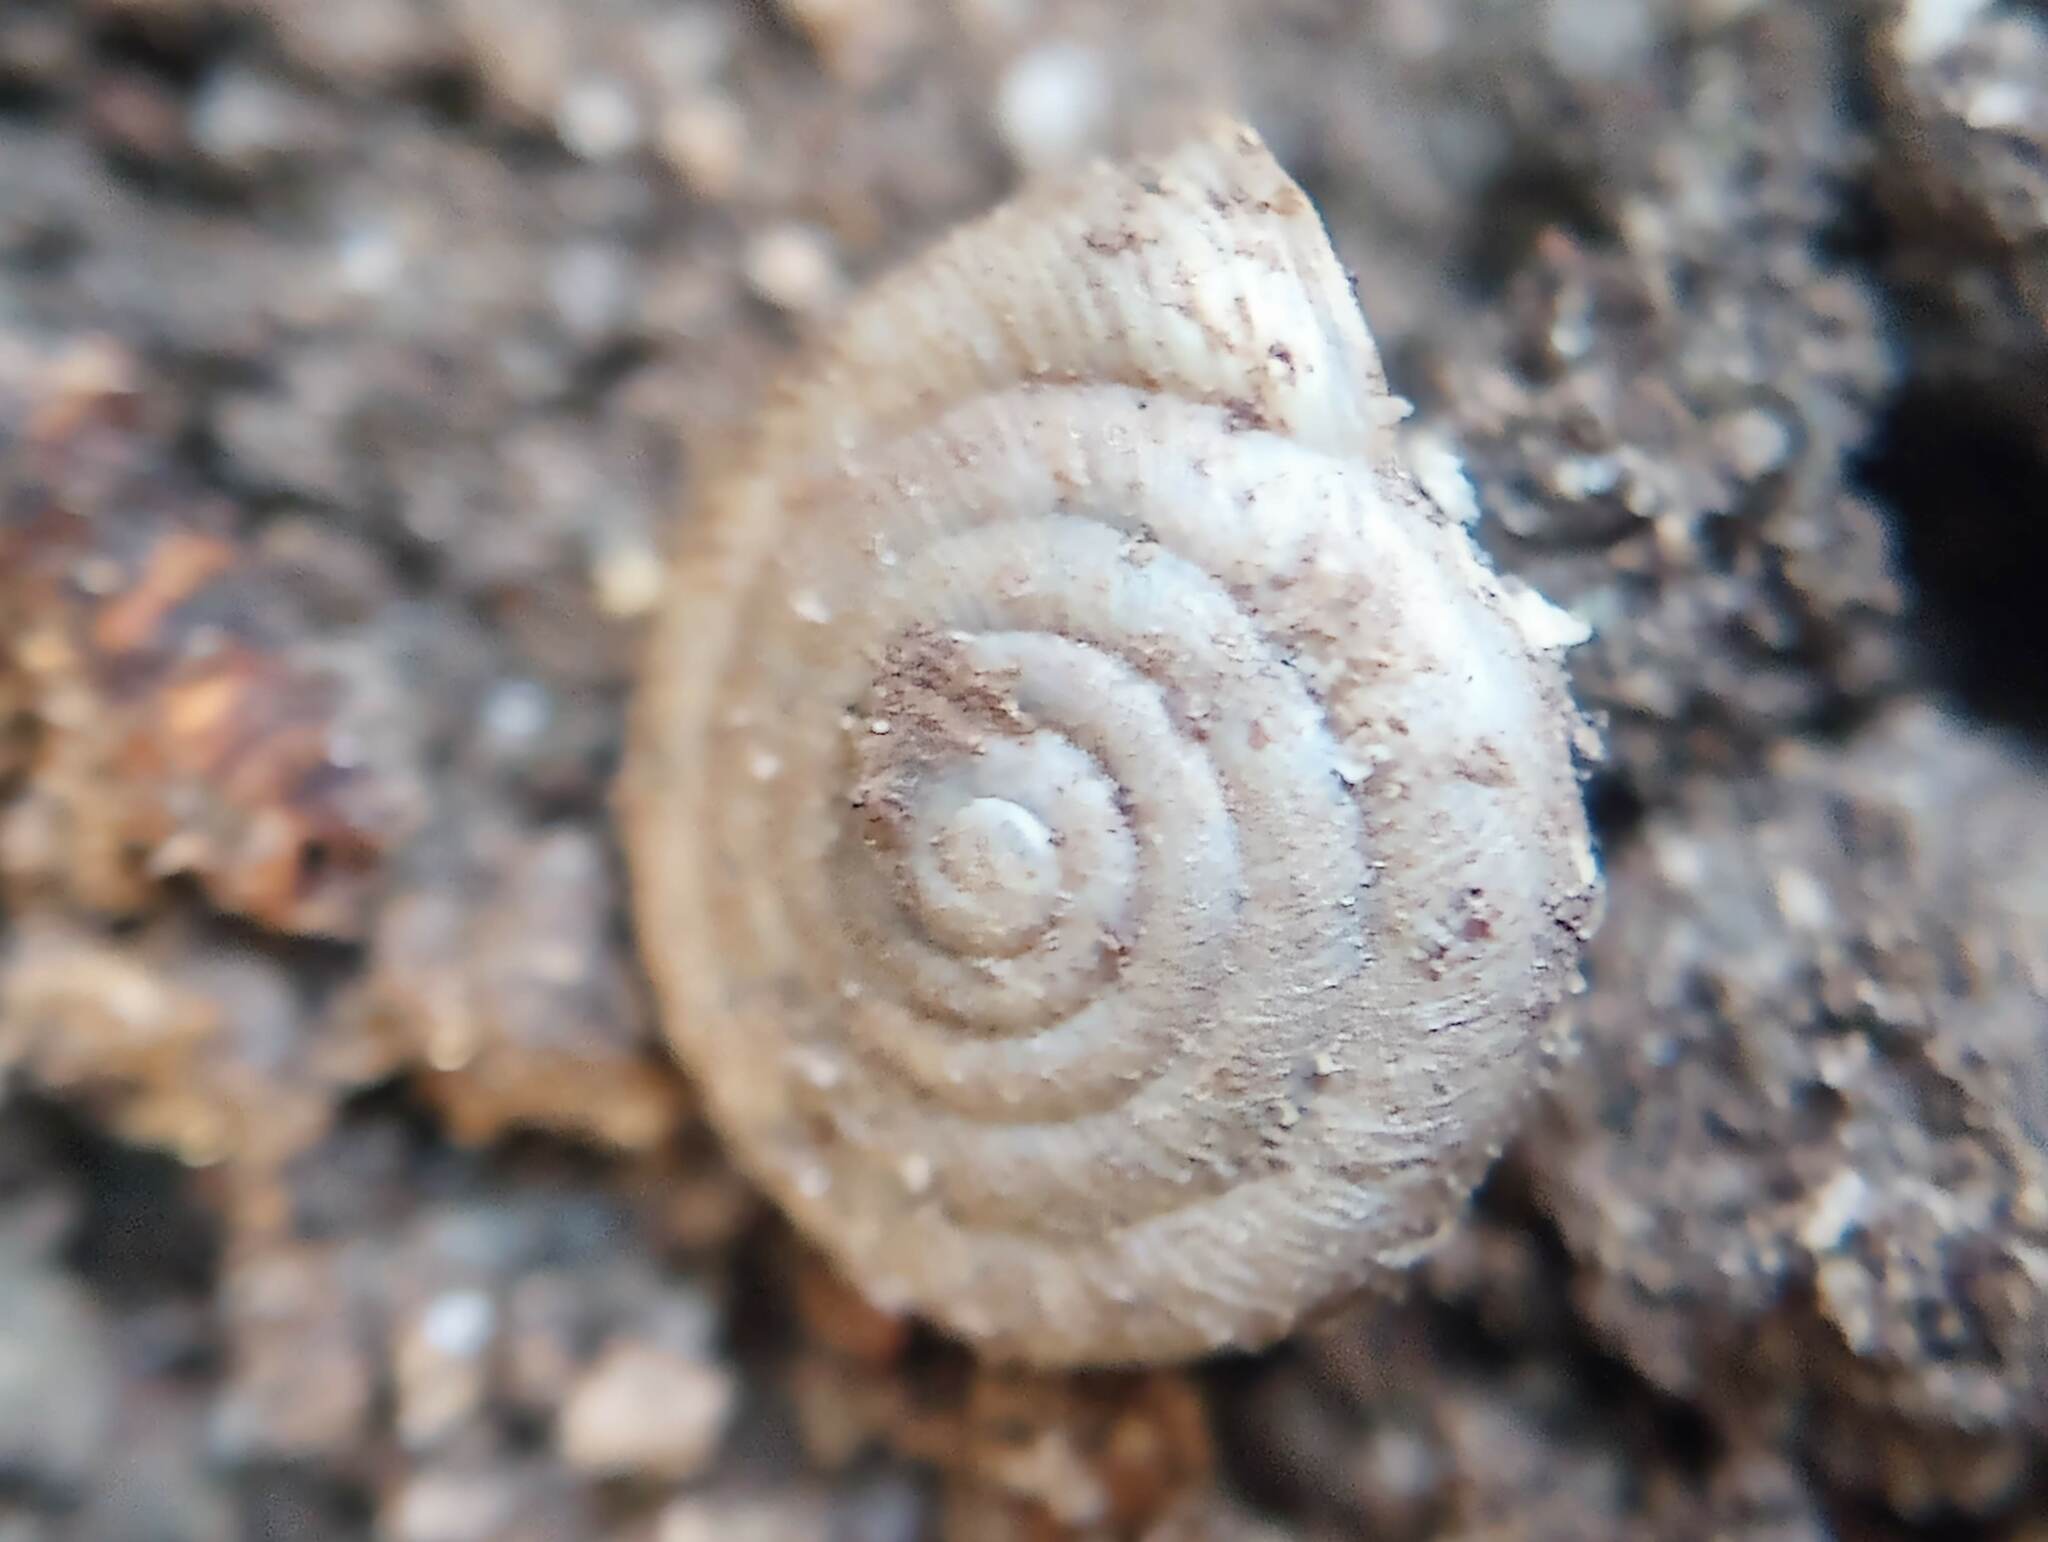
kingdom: Animalia
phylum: Mollusca
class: Gastropoda
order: Stylommatophora
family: Polygyridae
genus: Polygyra
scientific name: Polygyra cereolus
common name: Southern flatcone snail
